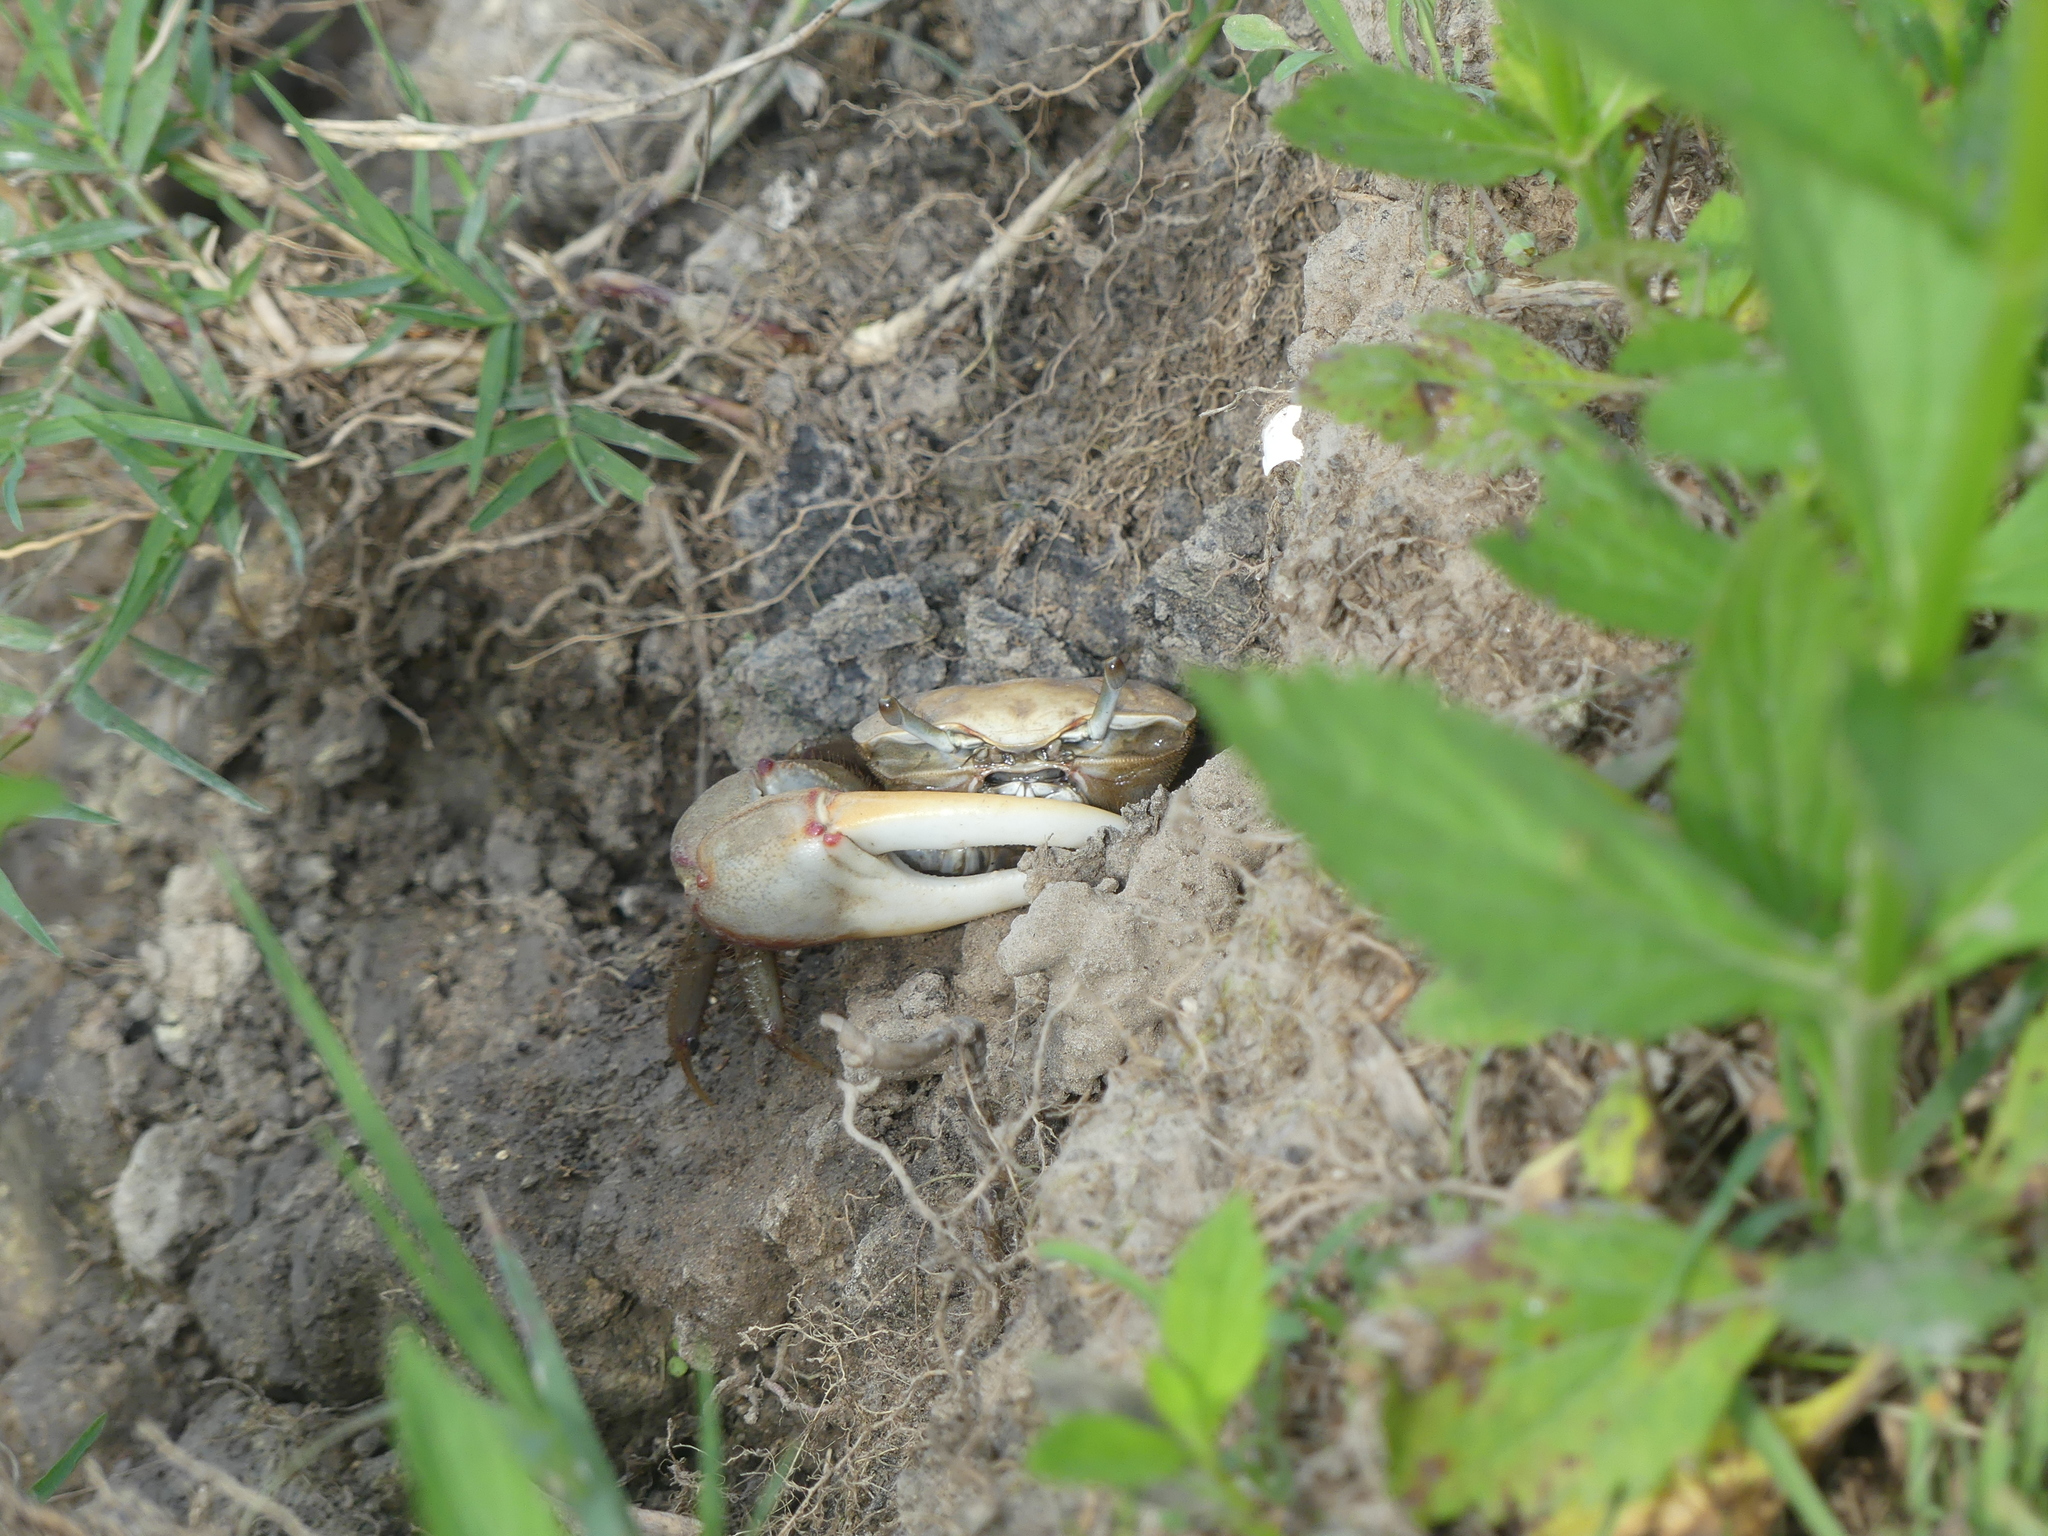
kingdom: Animalia
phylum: Arthropoda
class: Malacostraca
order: Decapoda
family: Ocypodidae
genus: Minuca
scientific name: Minuca minax
